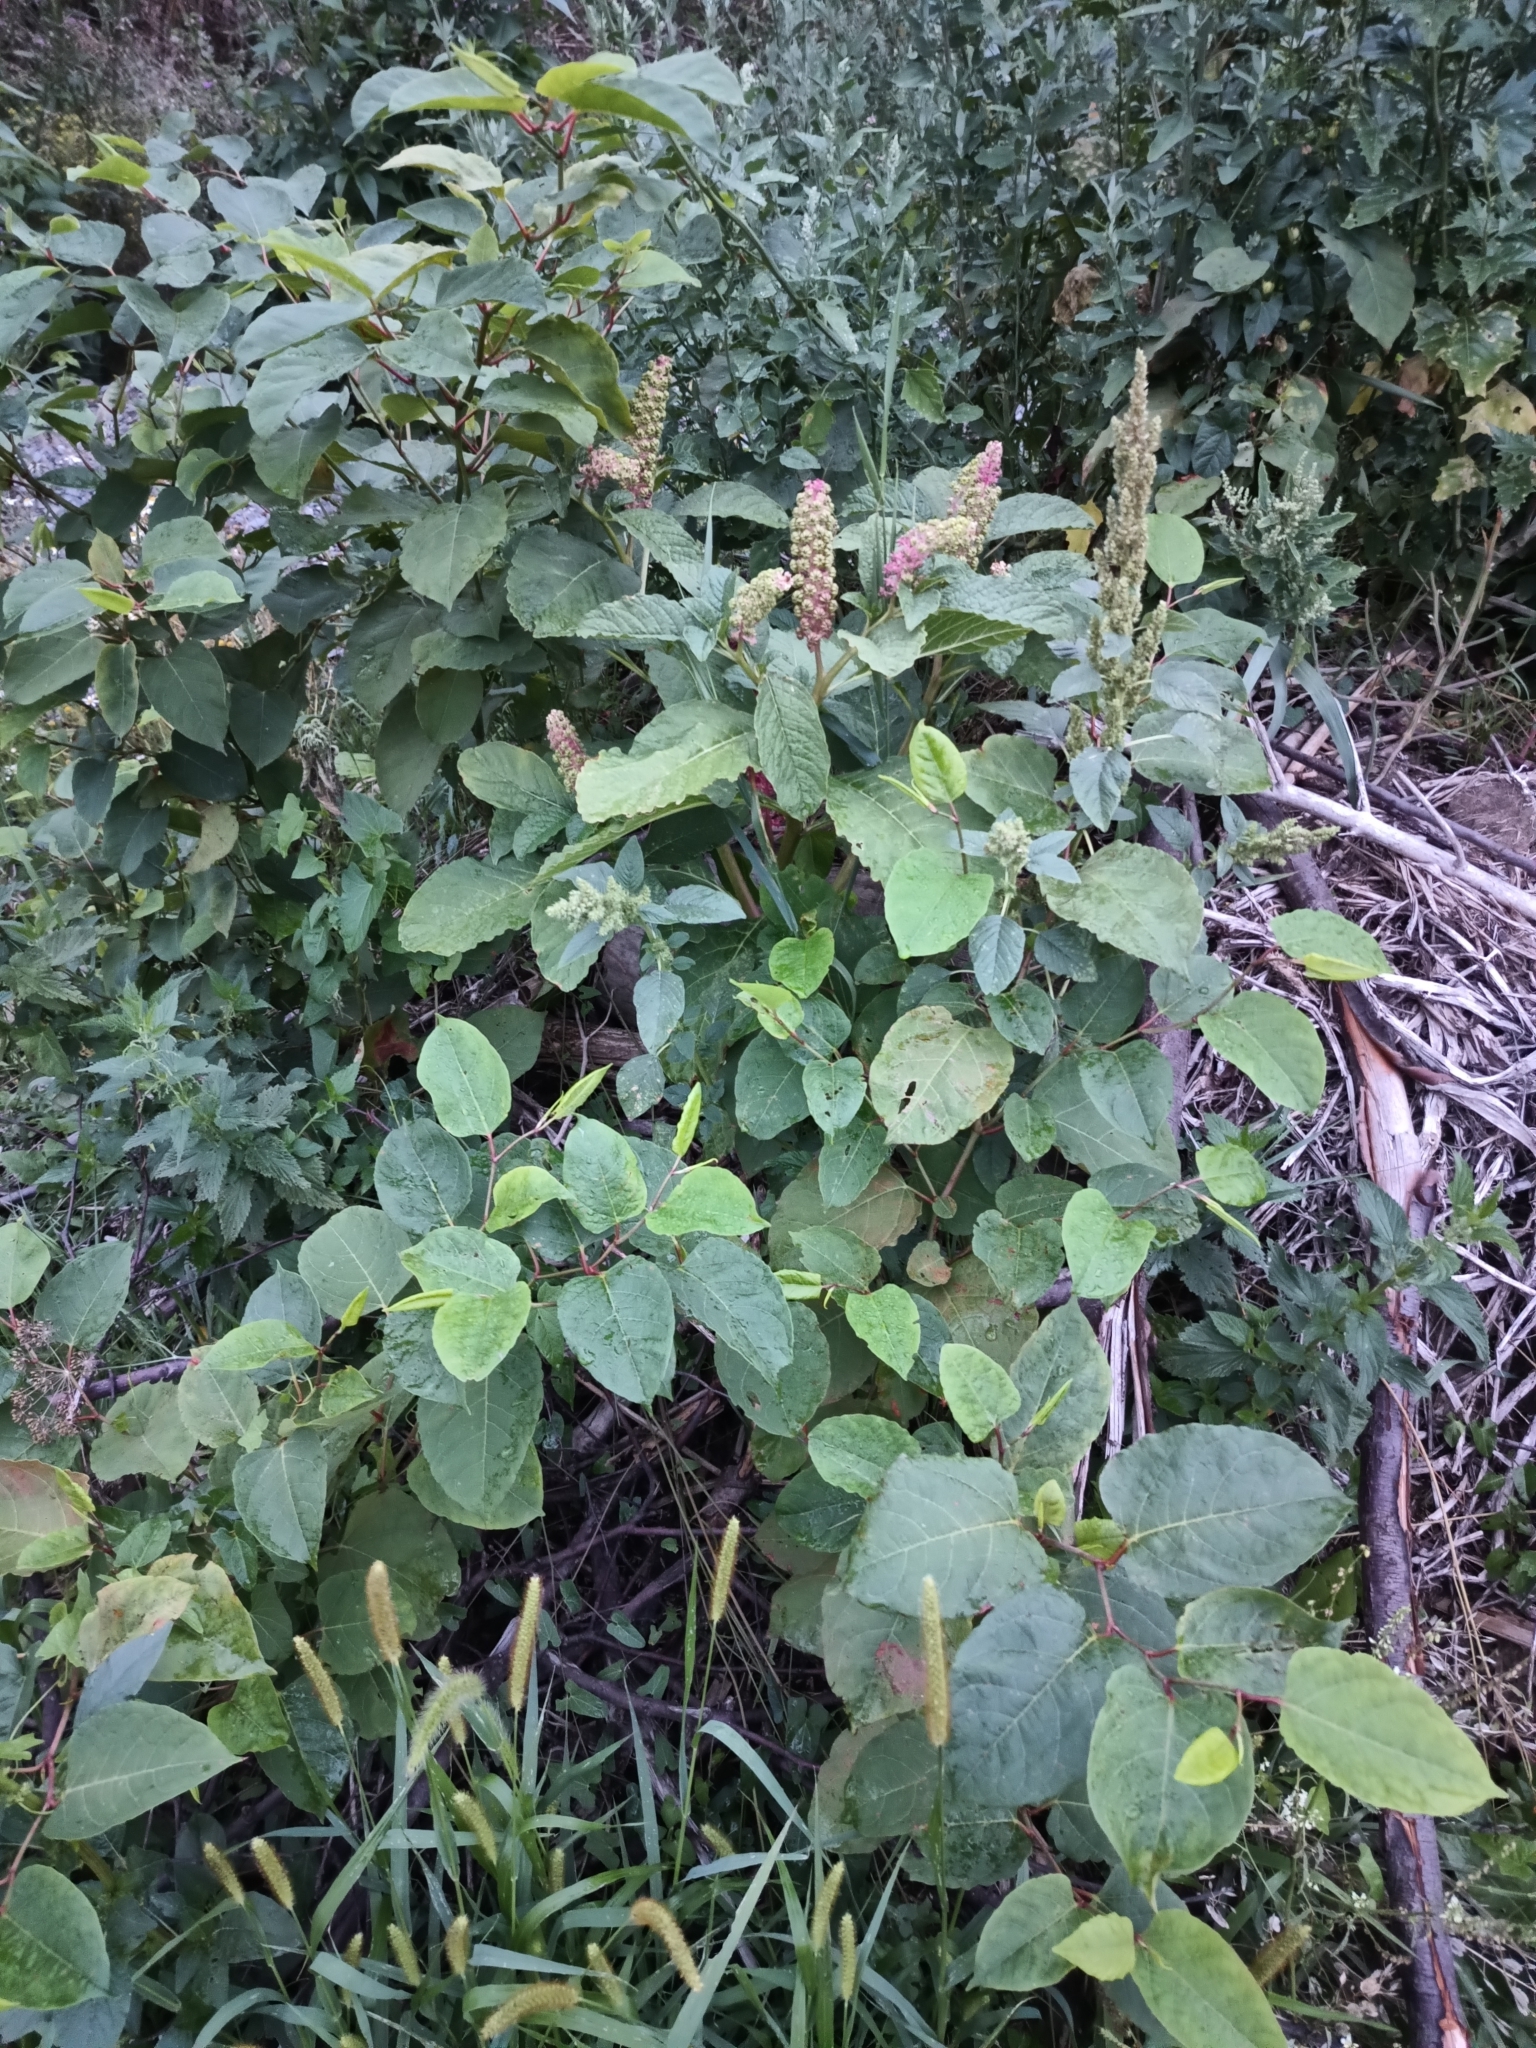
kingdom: Plantae
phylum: Tracheophyta
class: Magnoliopsida
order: Caryophyllales
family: Phytolaccaceae
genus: Phytolacca
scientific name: Phytolacca acinosa
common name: Indian pokeweed
